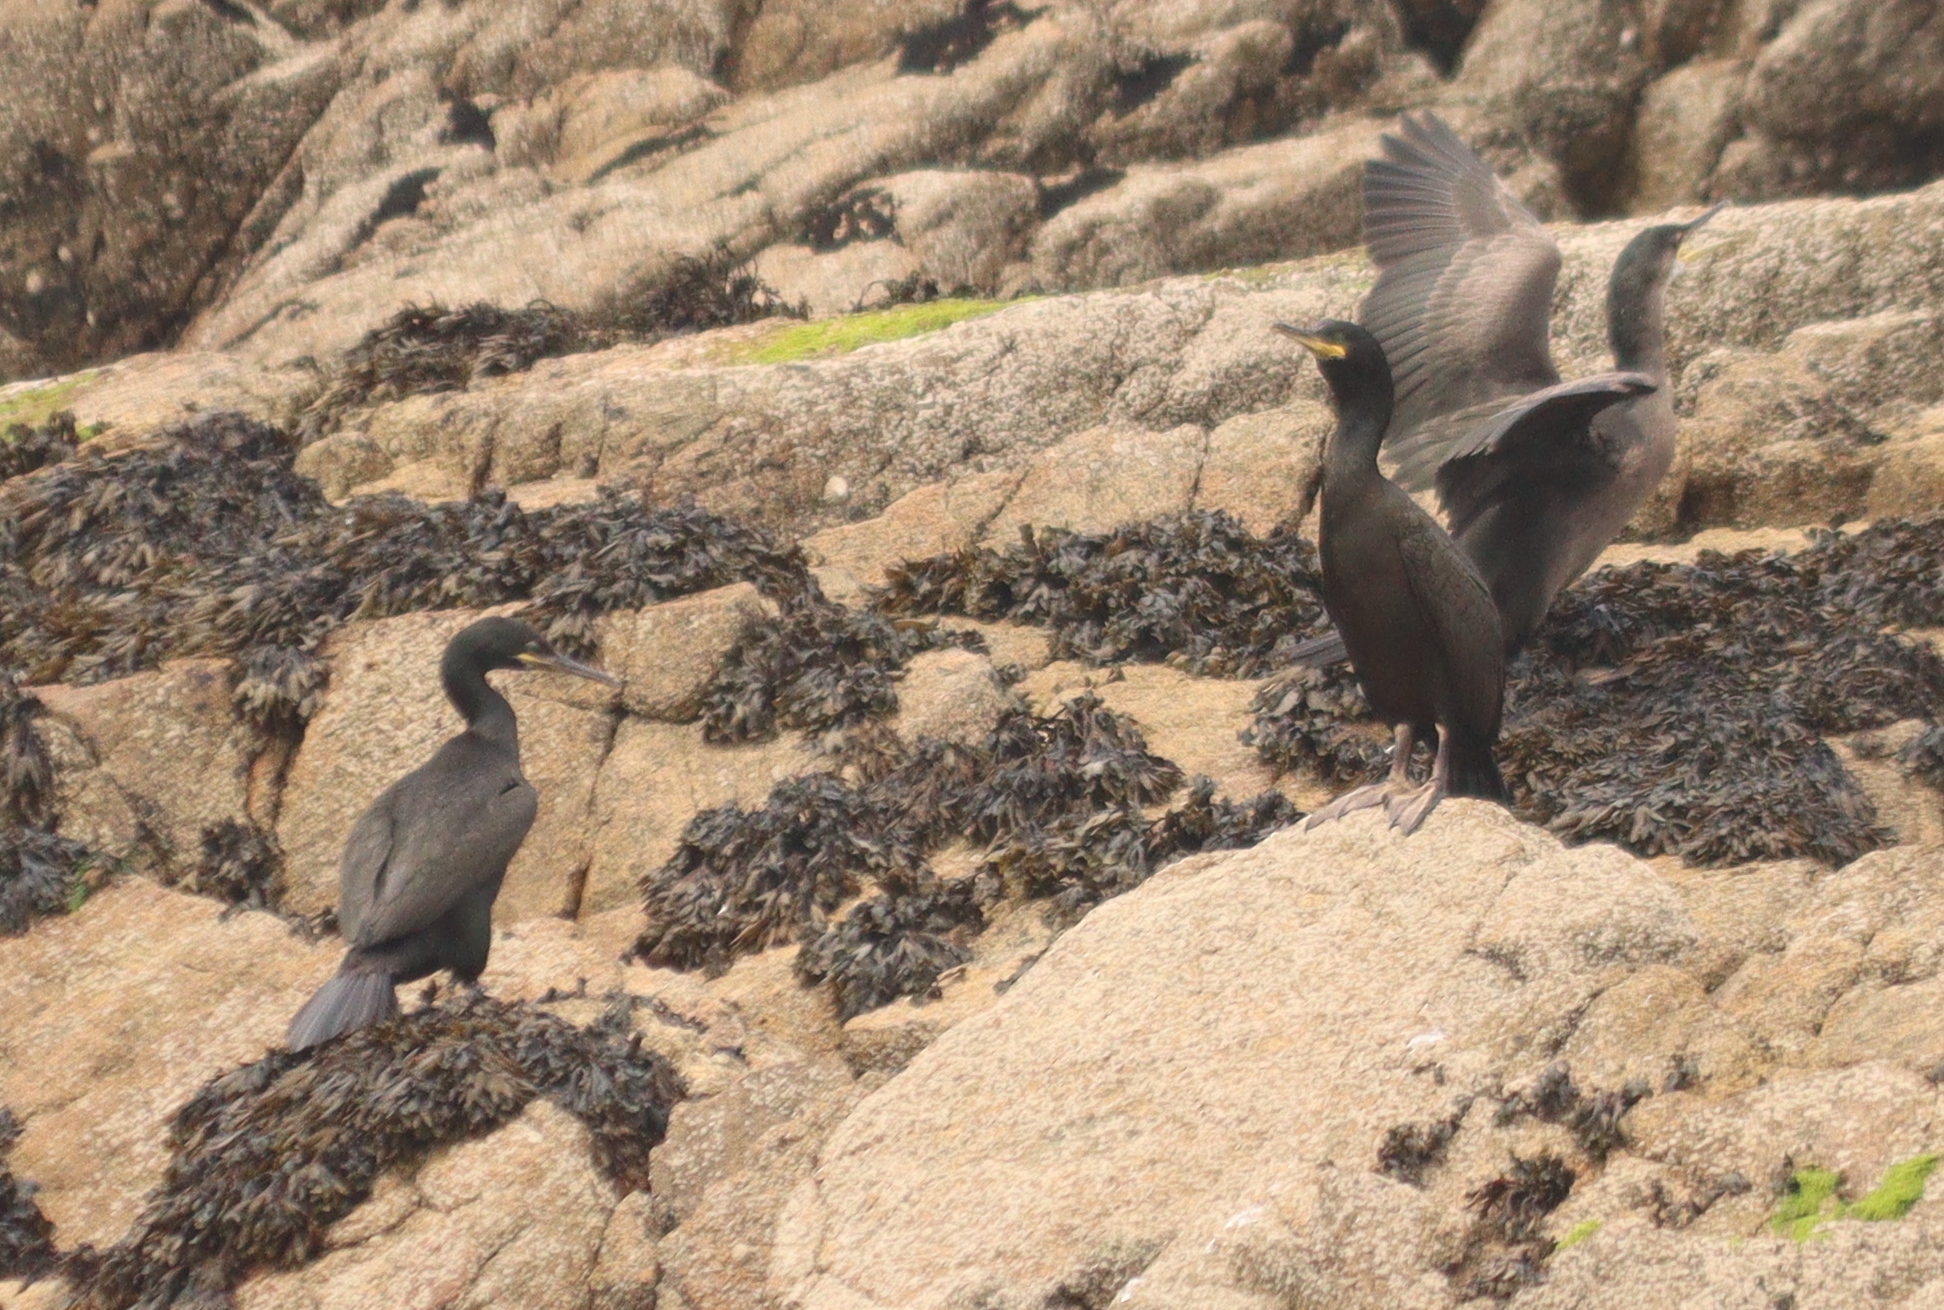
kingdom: Animalia
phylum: Chordata
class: Aves
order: Suliformes
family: Phalacrocoracidae
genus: Phalacrocorax
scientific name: Phalacrocorax aristotelis
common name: European shag
